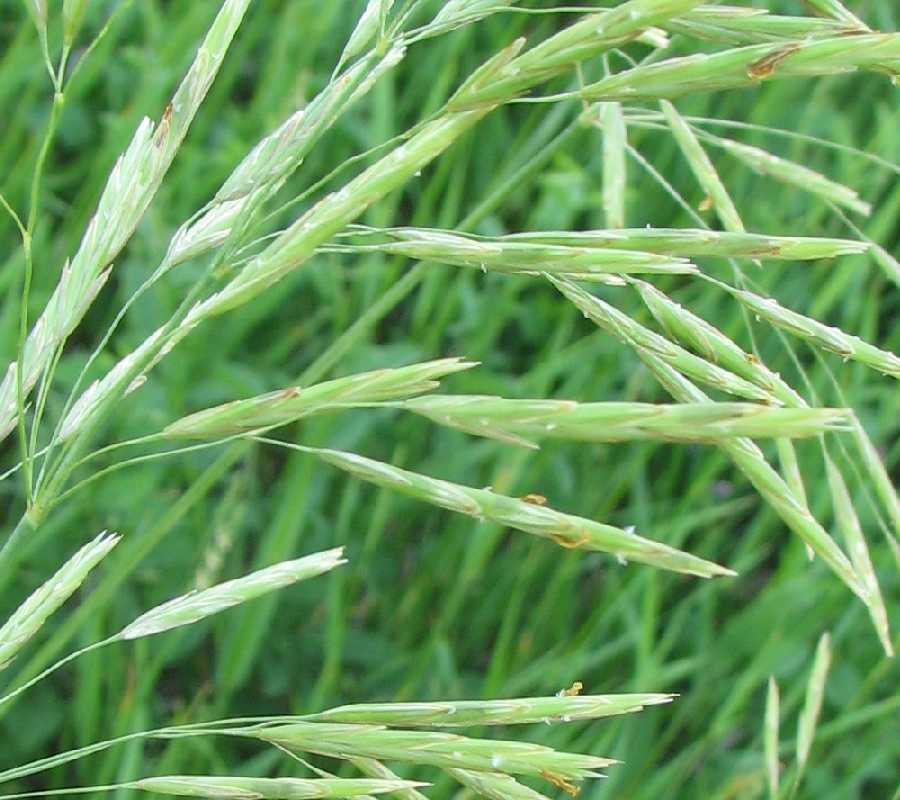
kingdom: Plantae
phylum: Tracheophyta
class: Liliopsida
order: Poales
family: Poaceae
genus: Bromus
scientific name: Bromus inermis
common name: Smooth brome
